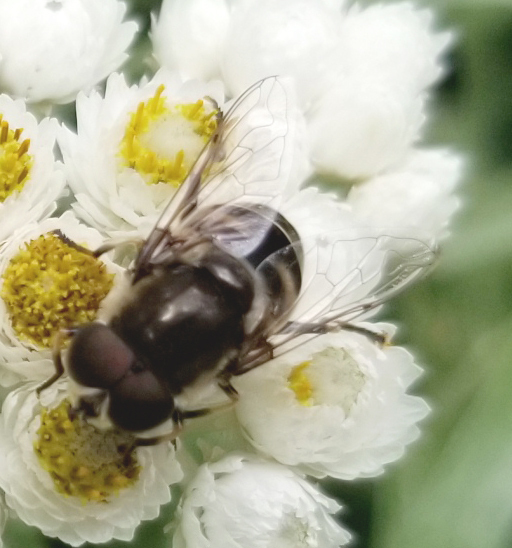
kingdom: Animalia
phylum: Arthropoda
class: Insecta
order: Diptera
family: Syrphidae
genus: Eristalis
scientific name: Eristalis dimidiata
